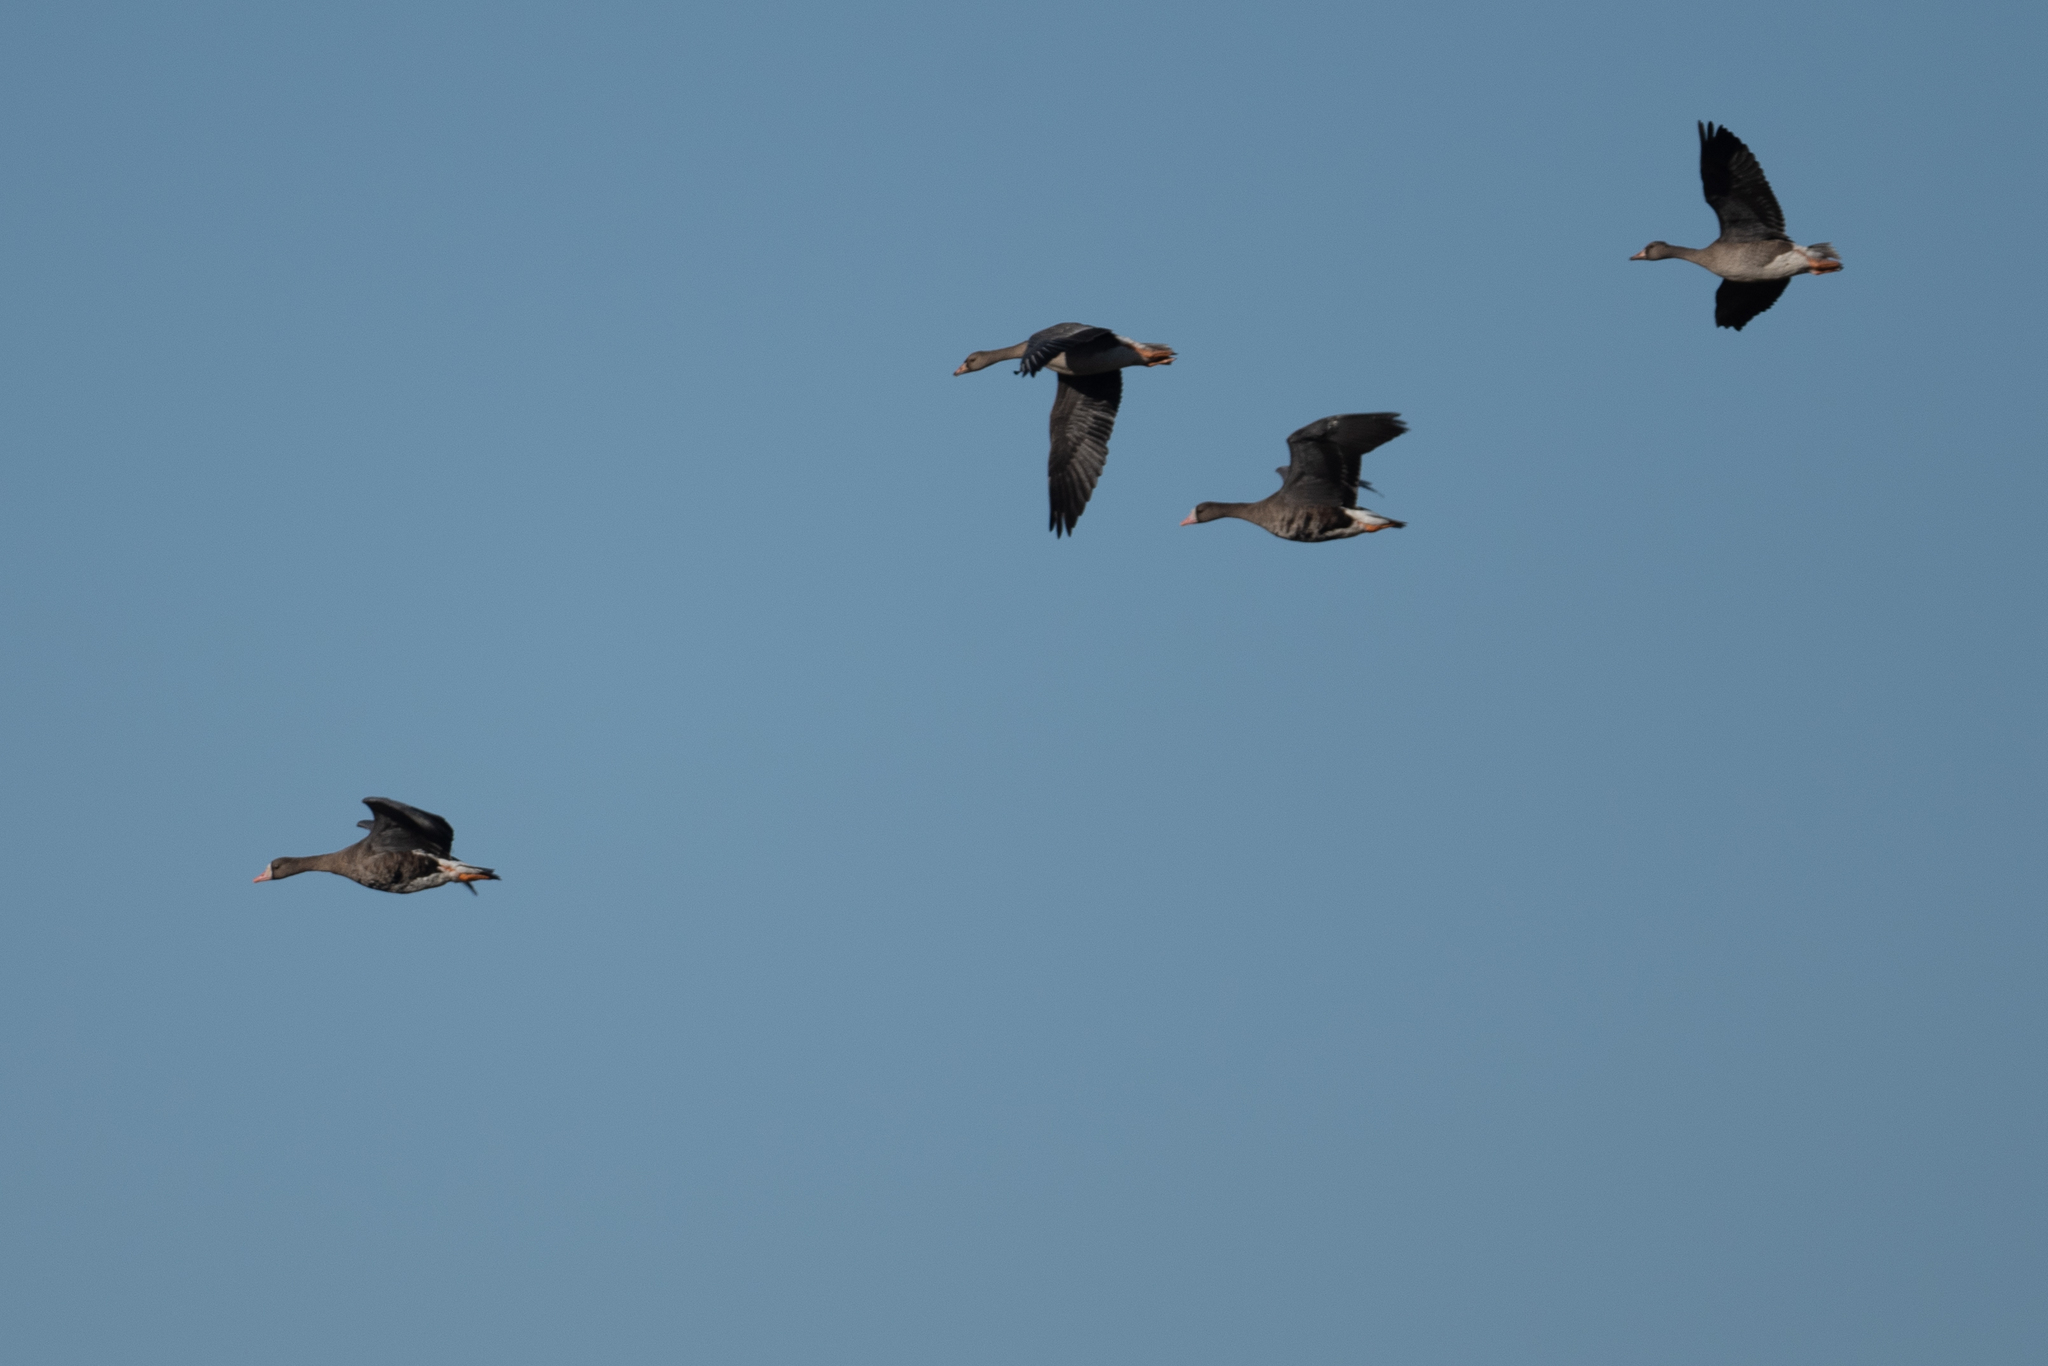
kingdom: Animalia
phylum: Chordata
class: Aves
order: Anseriformes
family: Anatidae
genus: Anser
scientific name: Anser albifrons
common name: Greater white-fronted goose
